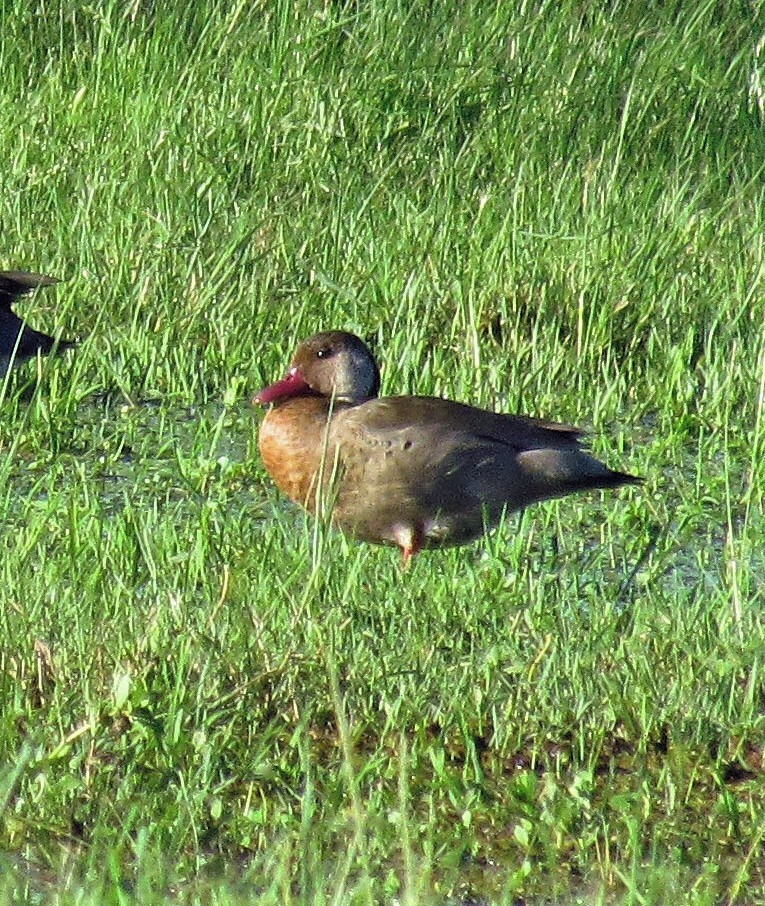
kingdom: Animalia
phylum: Chordata
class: Aves
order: Anseriformes
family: Anatidae
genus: Amazonetta
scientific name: Amazonetta brasiliensis
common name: Brazilian teal
